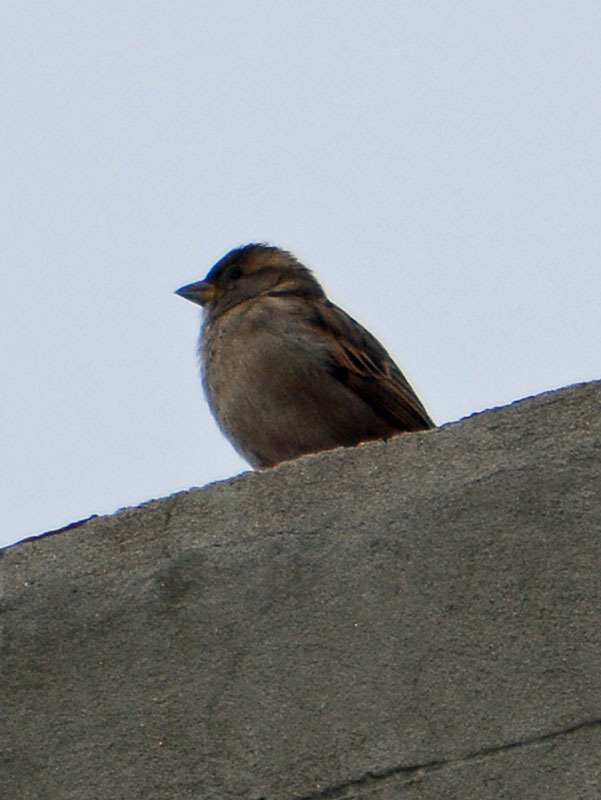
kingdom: Animalia
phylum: Chordata
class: Aves
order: Passeriformes
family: Passeridae
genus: Passer
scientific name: Passer domesticus
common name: House sparrow
